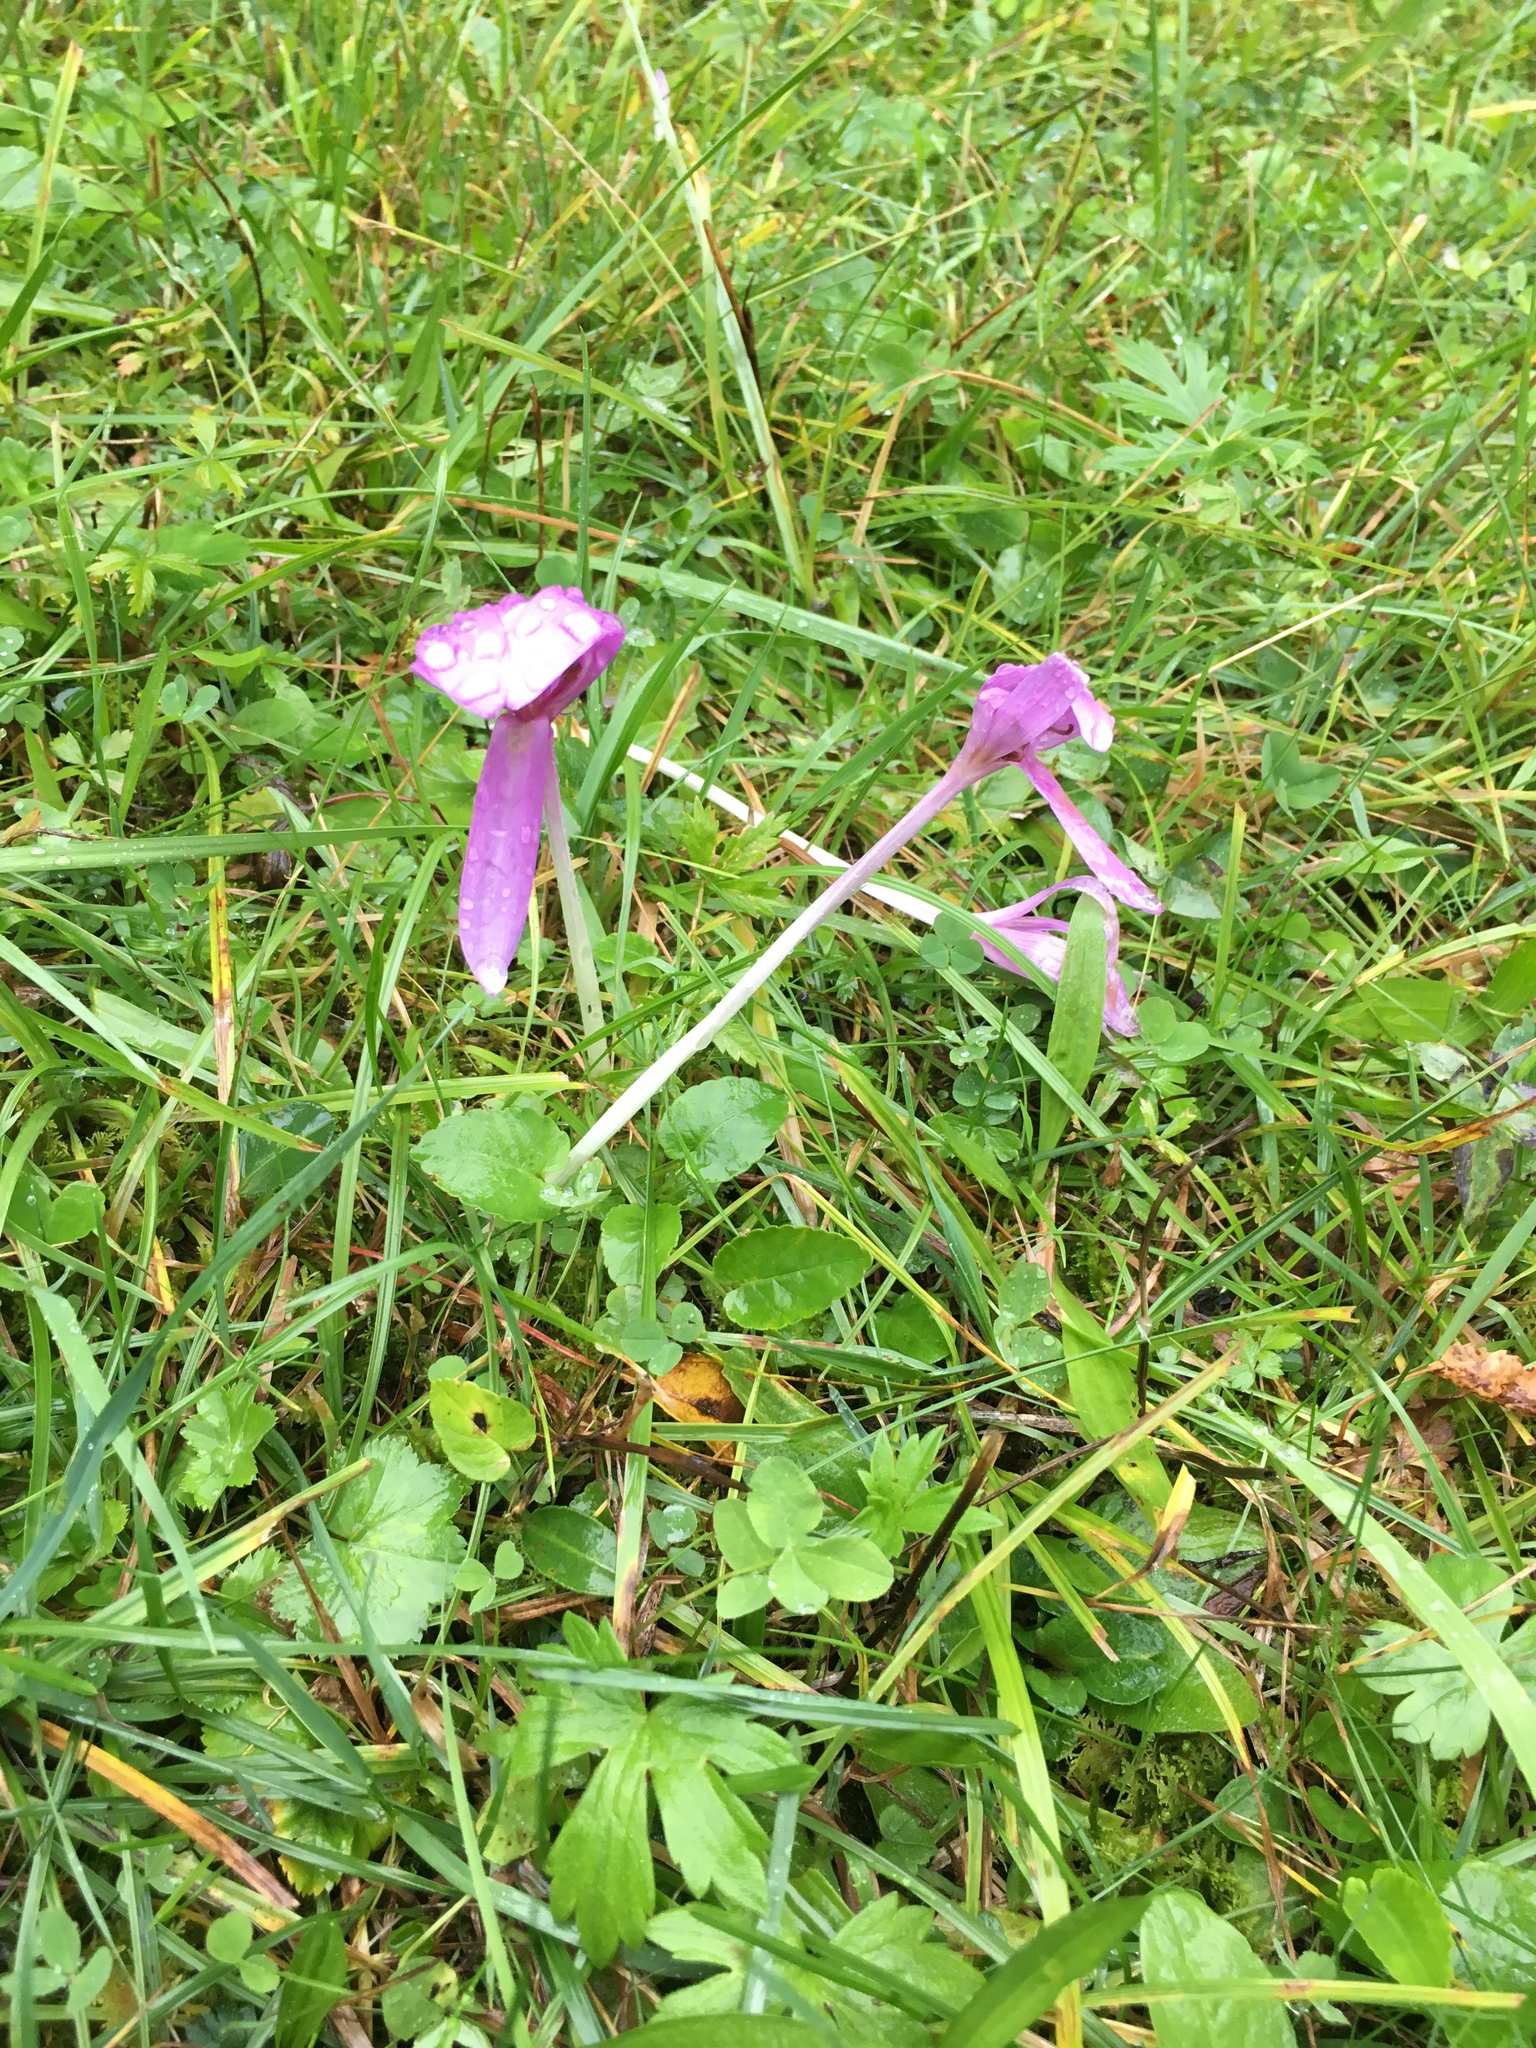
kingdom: Plantae
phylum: Tracheophyta
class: Liliopsida
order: Liliales
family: Colchicaceae
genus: Colchicum
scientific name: Colchicum autumnale
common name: Autumn crocus
